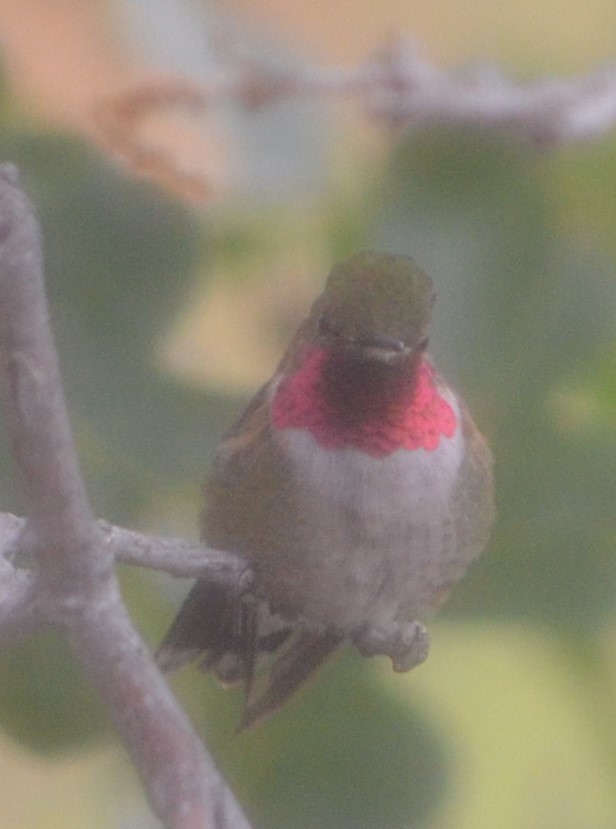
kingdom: Animalia
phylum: Chordata
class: Aves
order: Apodiformes
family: Trochilidae
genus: Selasphorus
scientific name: Selasphorus platycercus
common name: Broad-tailed hummingbird
